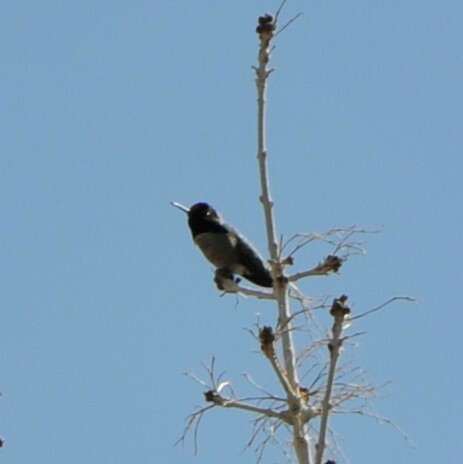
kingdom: Animalia
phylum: Chordata
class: Aves
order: Apodiformes
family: Trochilidae
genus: Calypte
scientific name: Calypte costae
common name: Costa's hummingbird
